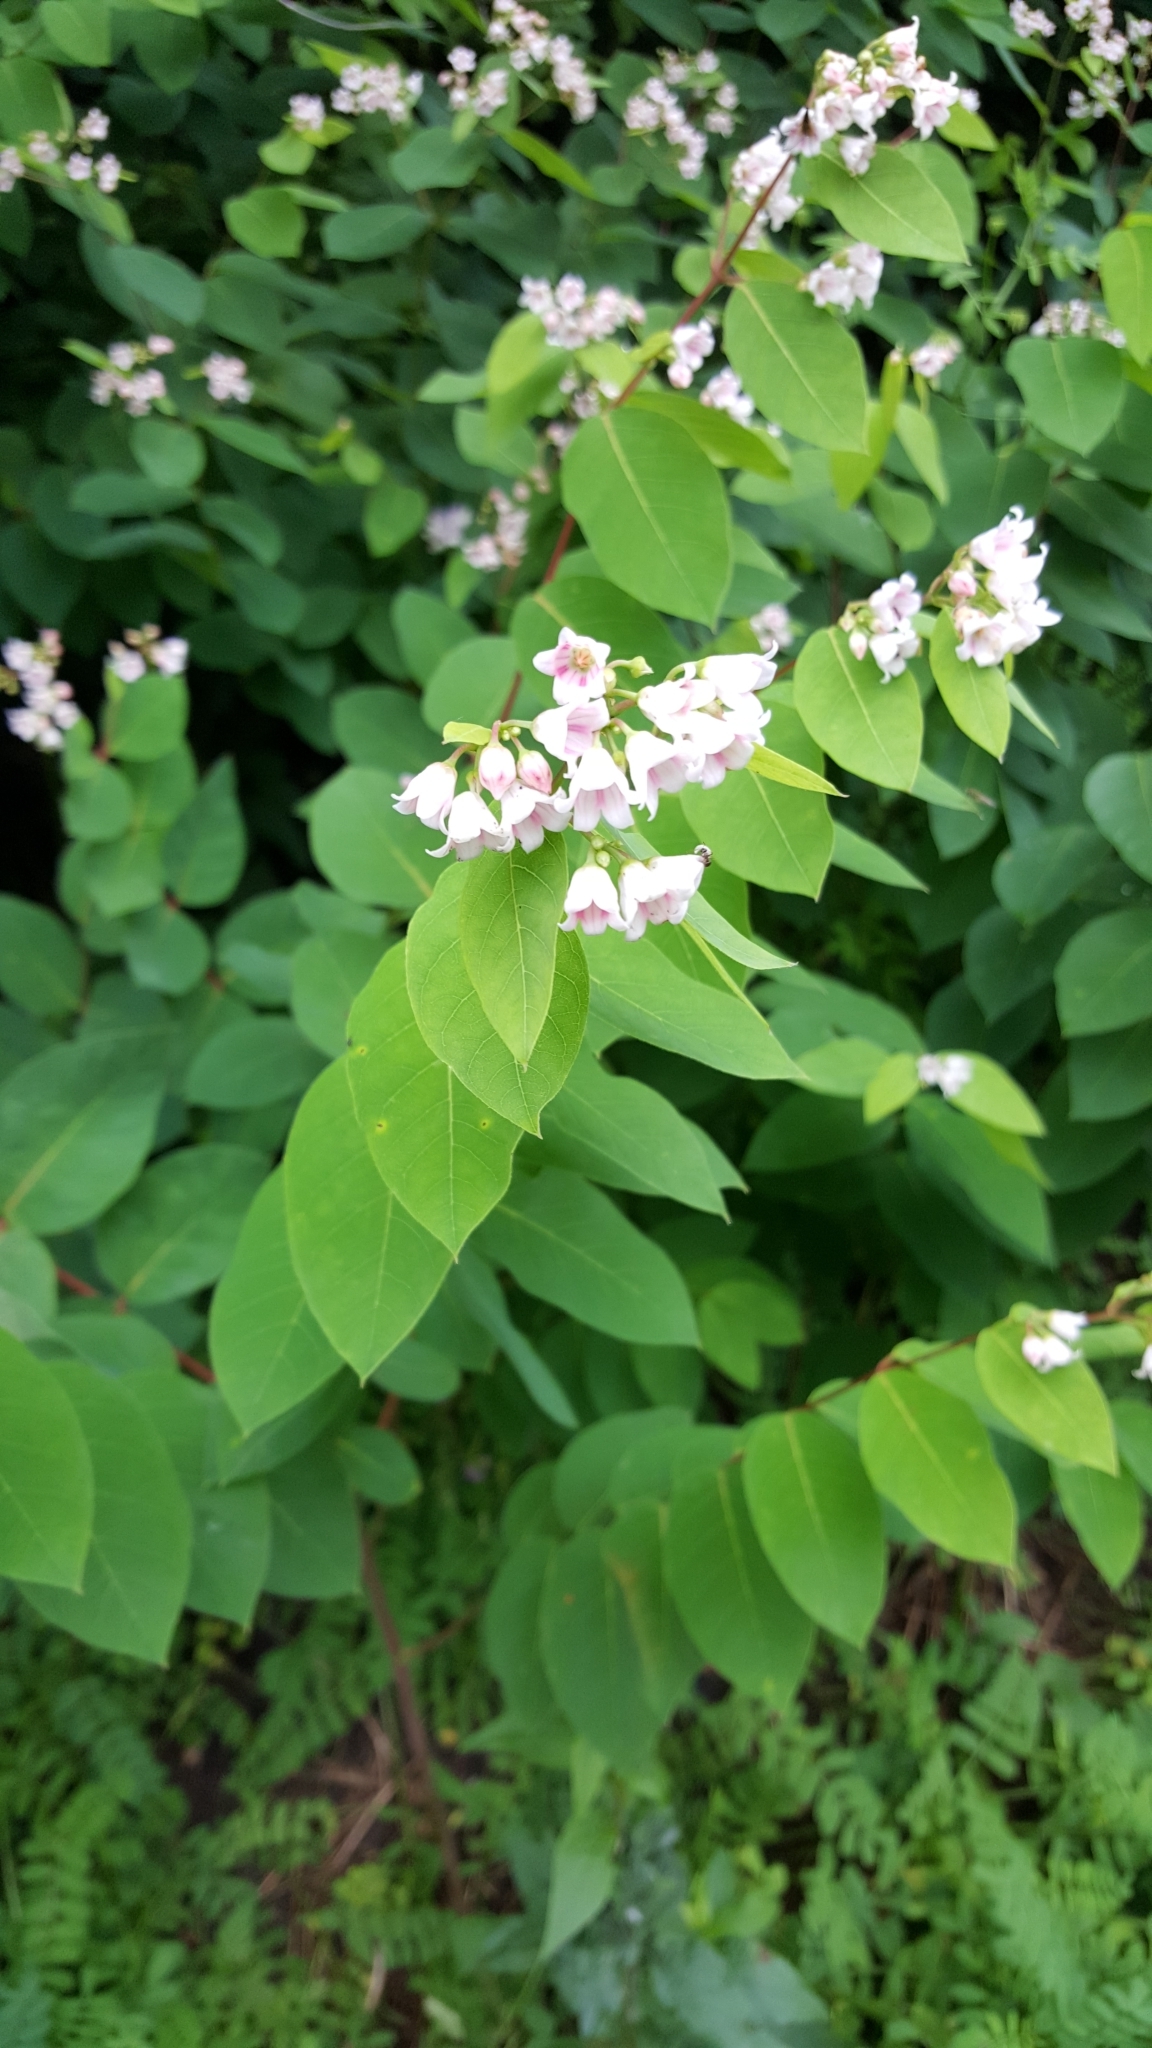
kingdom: Plantae
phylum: Tracheophyta
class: Magnoliopsida
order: Gentianales
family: Apocynaceae
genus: Apocynum
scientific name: Apocynum androsaemifolium
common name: Spreading dogbane
